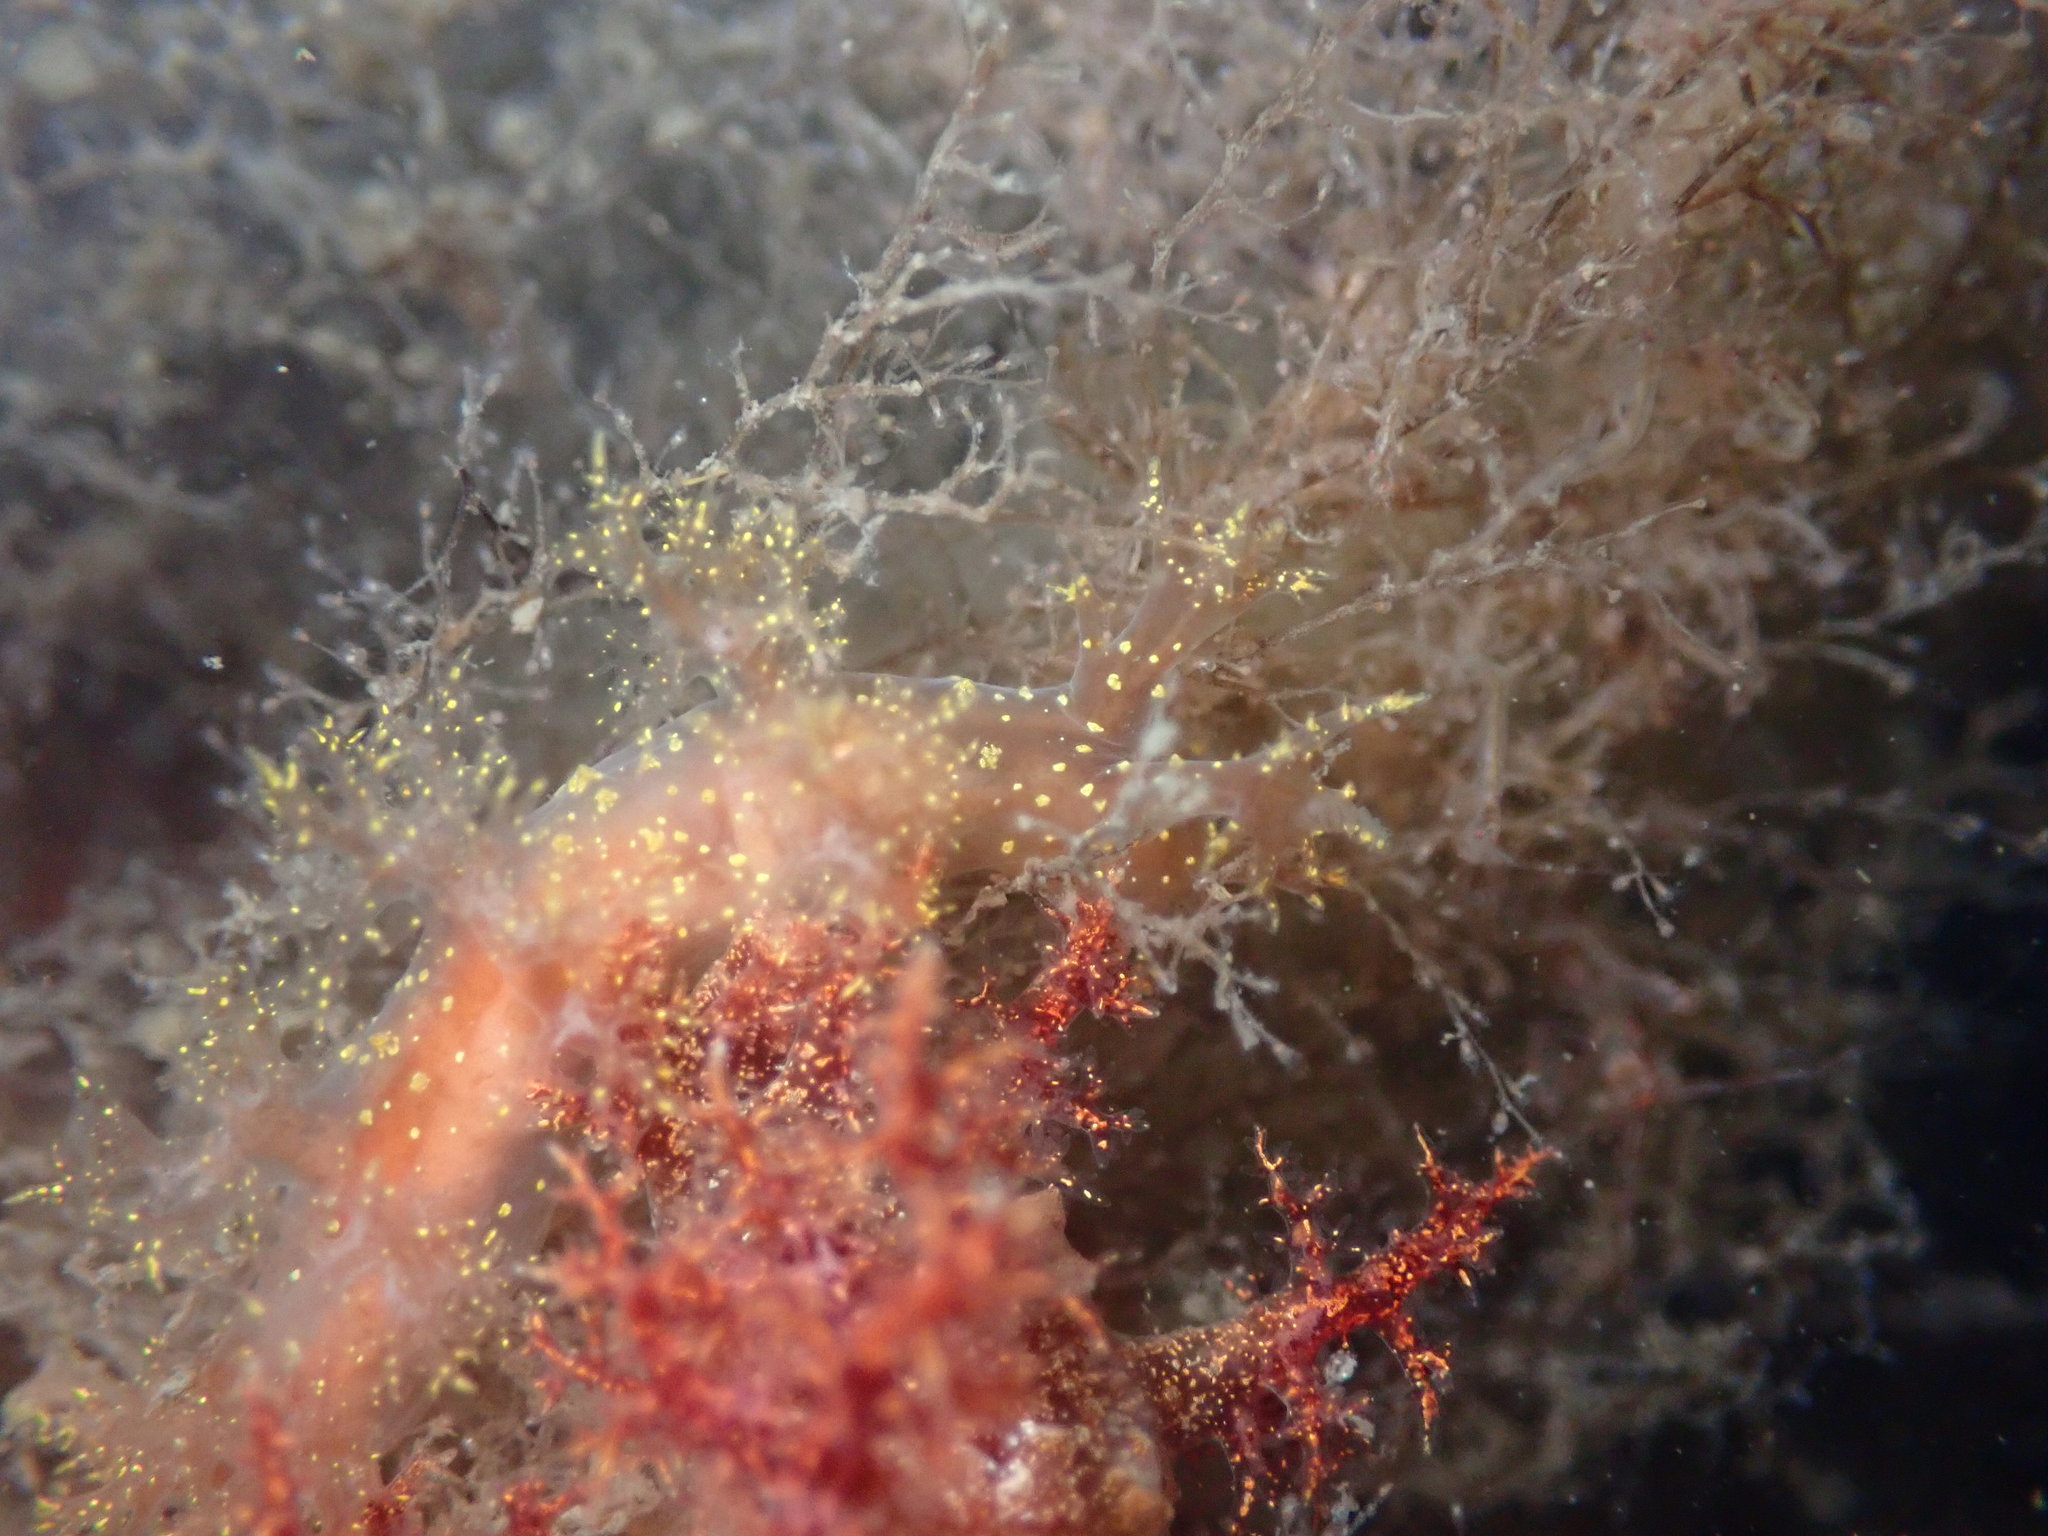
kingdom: Animalia
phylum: Mollusca
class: Gastropoda
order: Nudibranchia
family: Dendronotidae
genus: Dendronotus
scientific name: Dendronotus venustus
